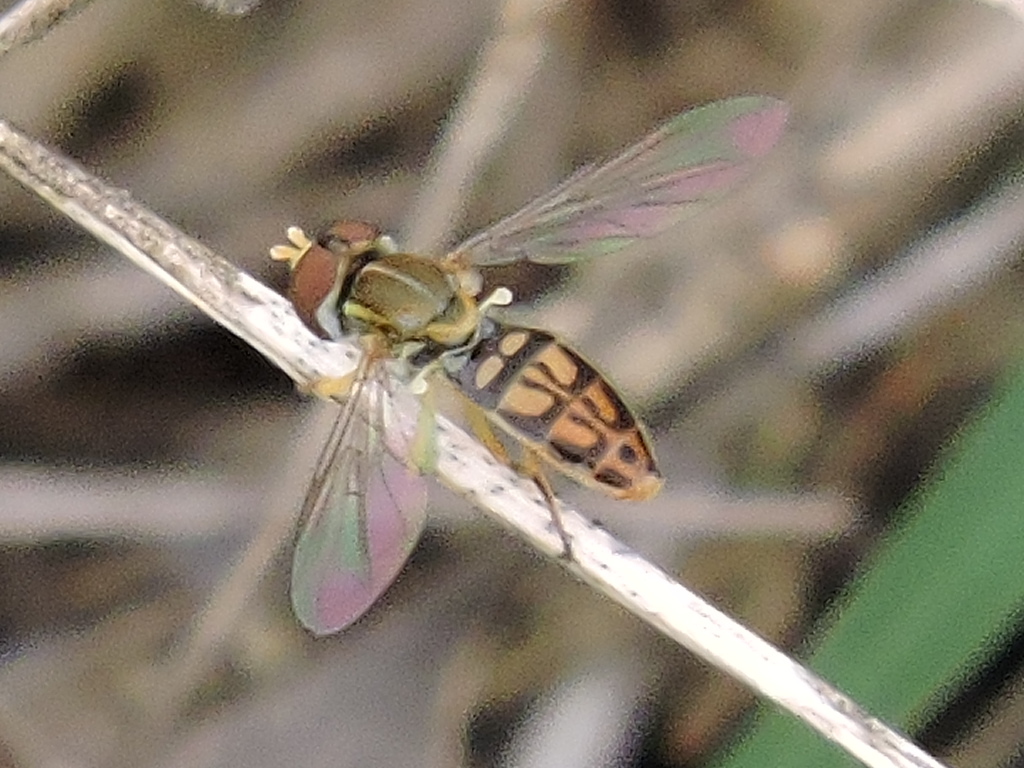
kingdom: Animalia
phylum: Arthropoda
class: Insecta
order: Diptera
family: Syrphidae
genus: Toxomerus
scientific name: Toxomerus marginatus
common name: Syrphid fly
